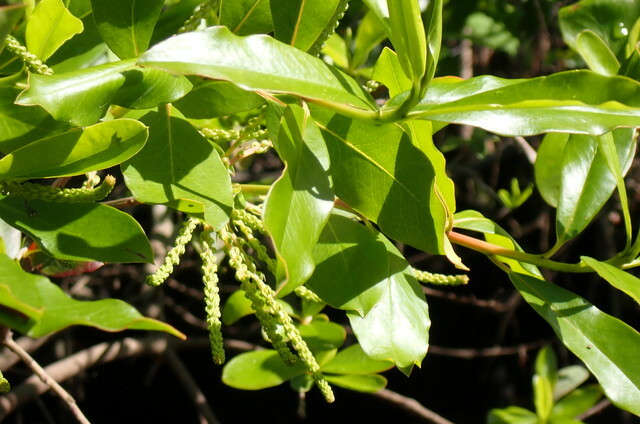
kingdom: Plantae
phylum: Tracheophyta
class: Magnoliopsida
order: Ericales
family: Cyrillaceae
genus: Cyrilla
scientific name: Cyrilla racemiflora
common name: Black titi
